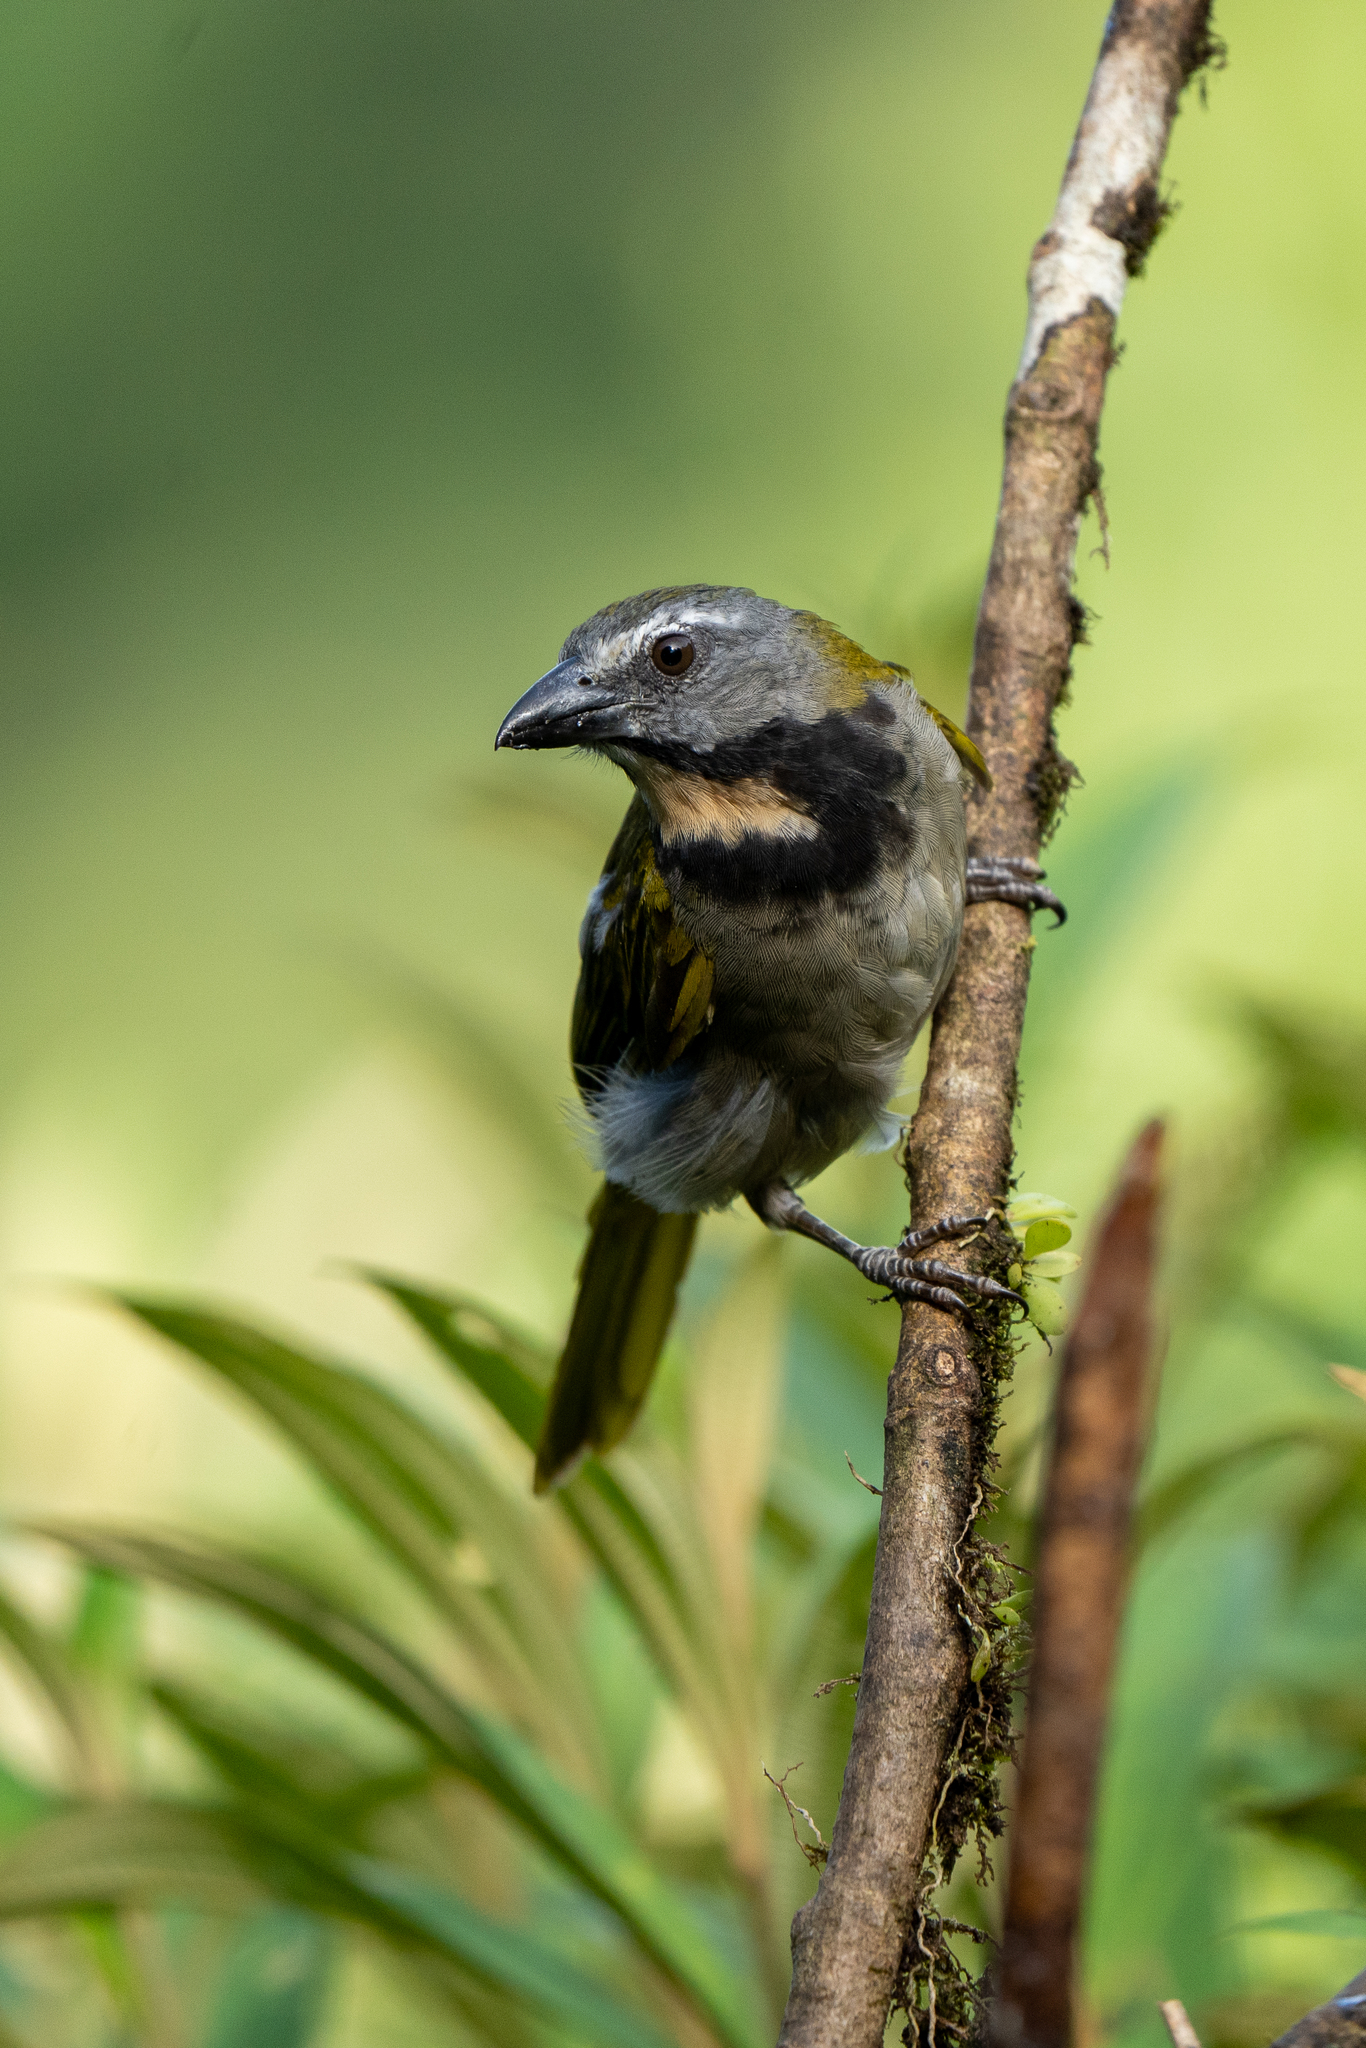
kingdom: Animalia
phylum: Chordata
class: Aves
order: Passeriformes
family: Thraupidae
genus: Saltator
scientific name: Saltator maximus
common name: Buff-throated saltator
